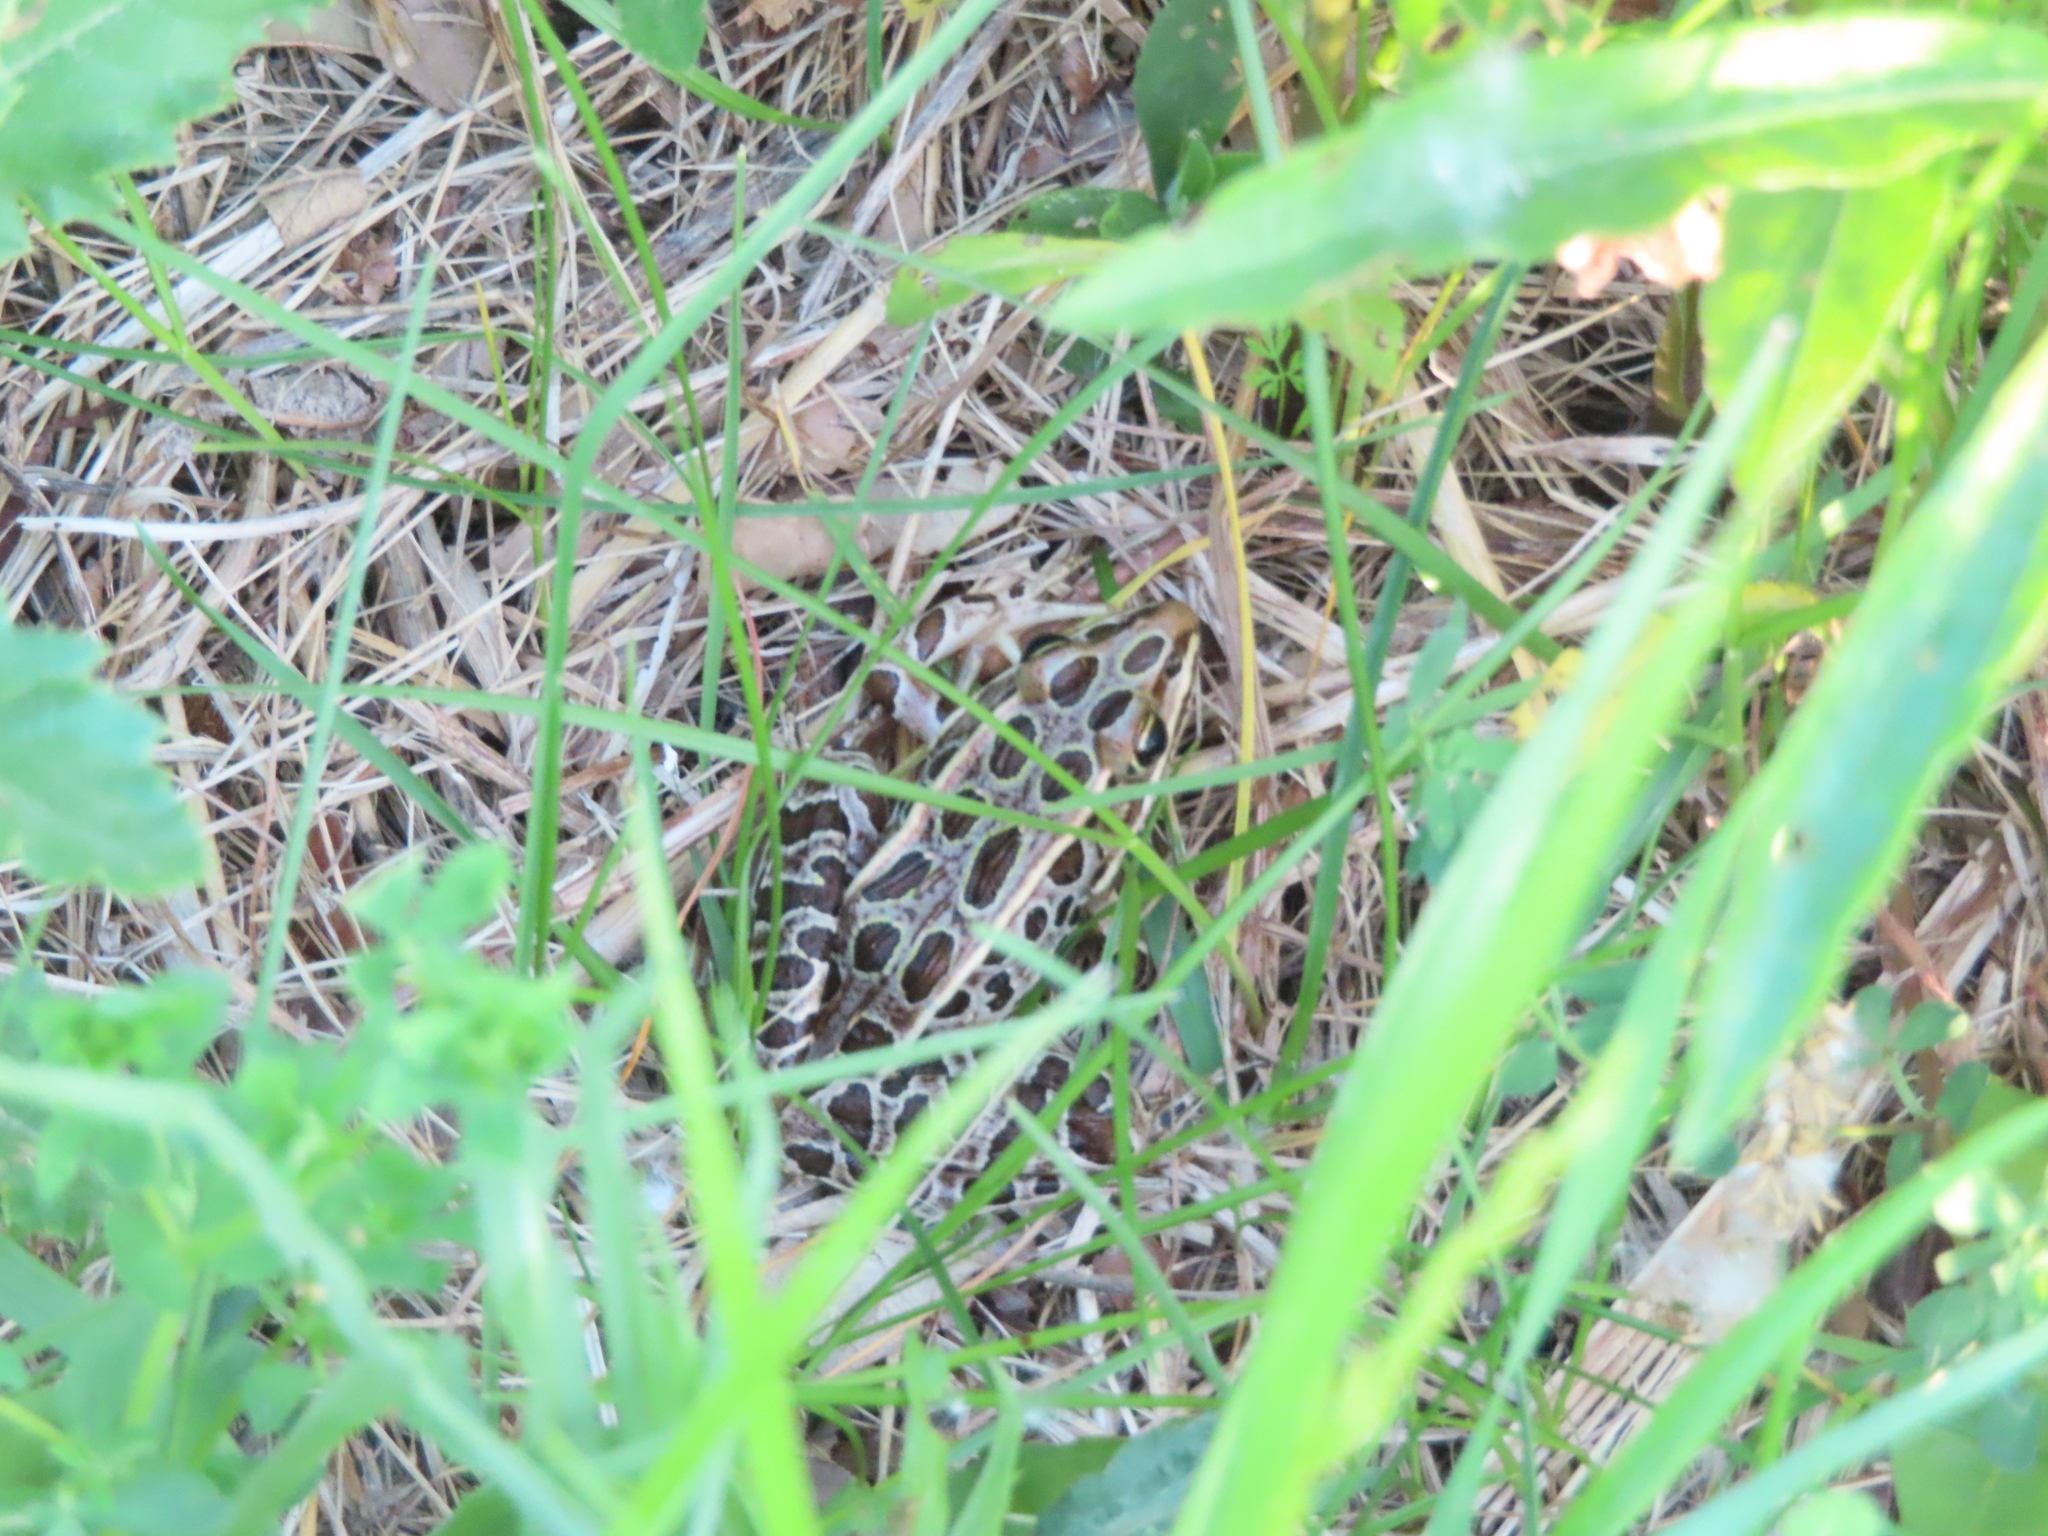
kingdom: Animalia
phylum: Chordata
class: Amphibia
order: Anura
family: Ranidae
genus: Lithobates
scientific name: Lithobates pipiens
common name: Northern leopard frog
